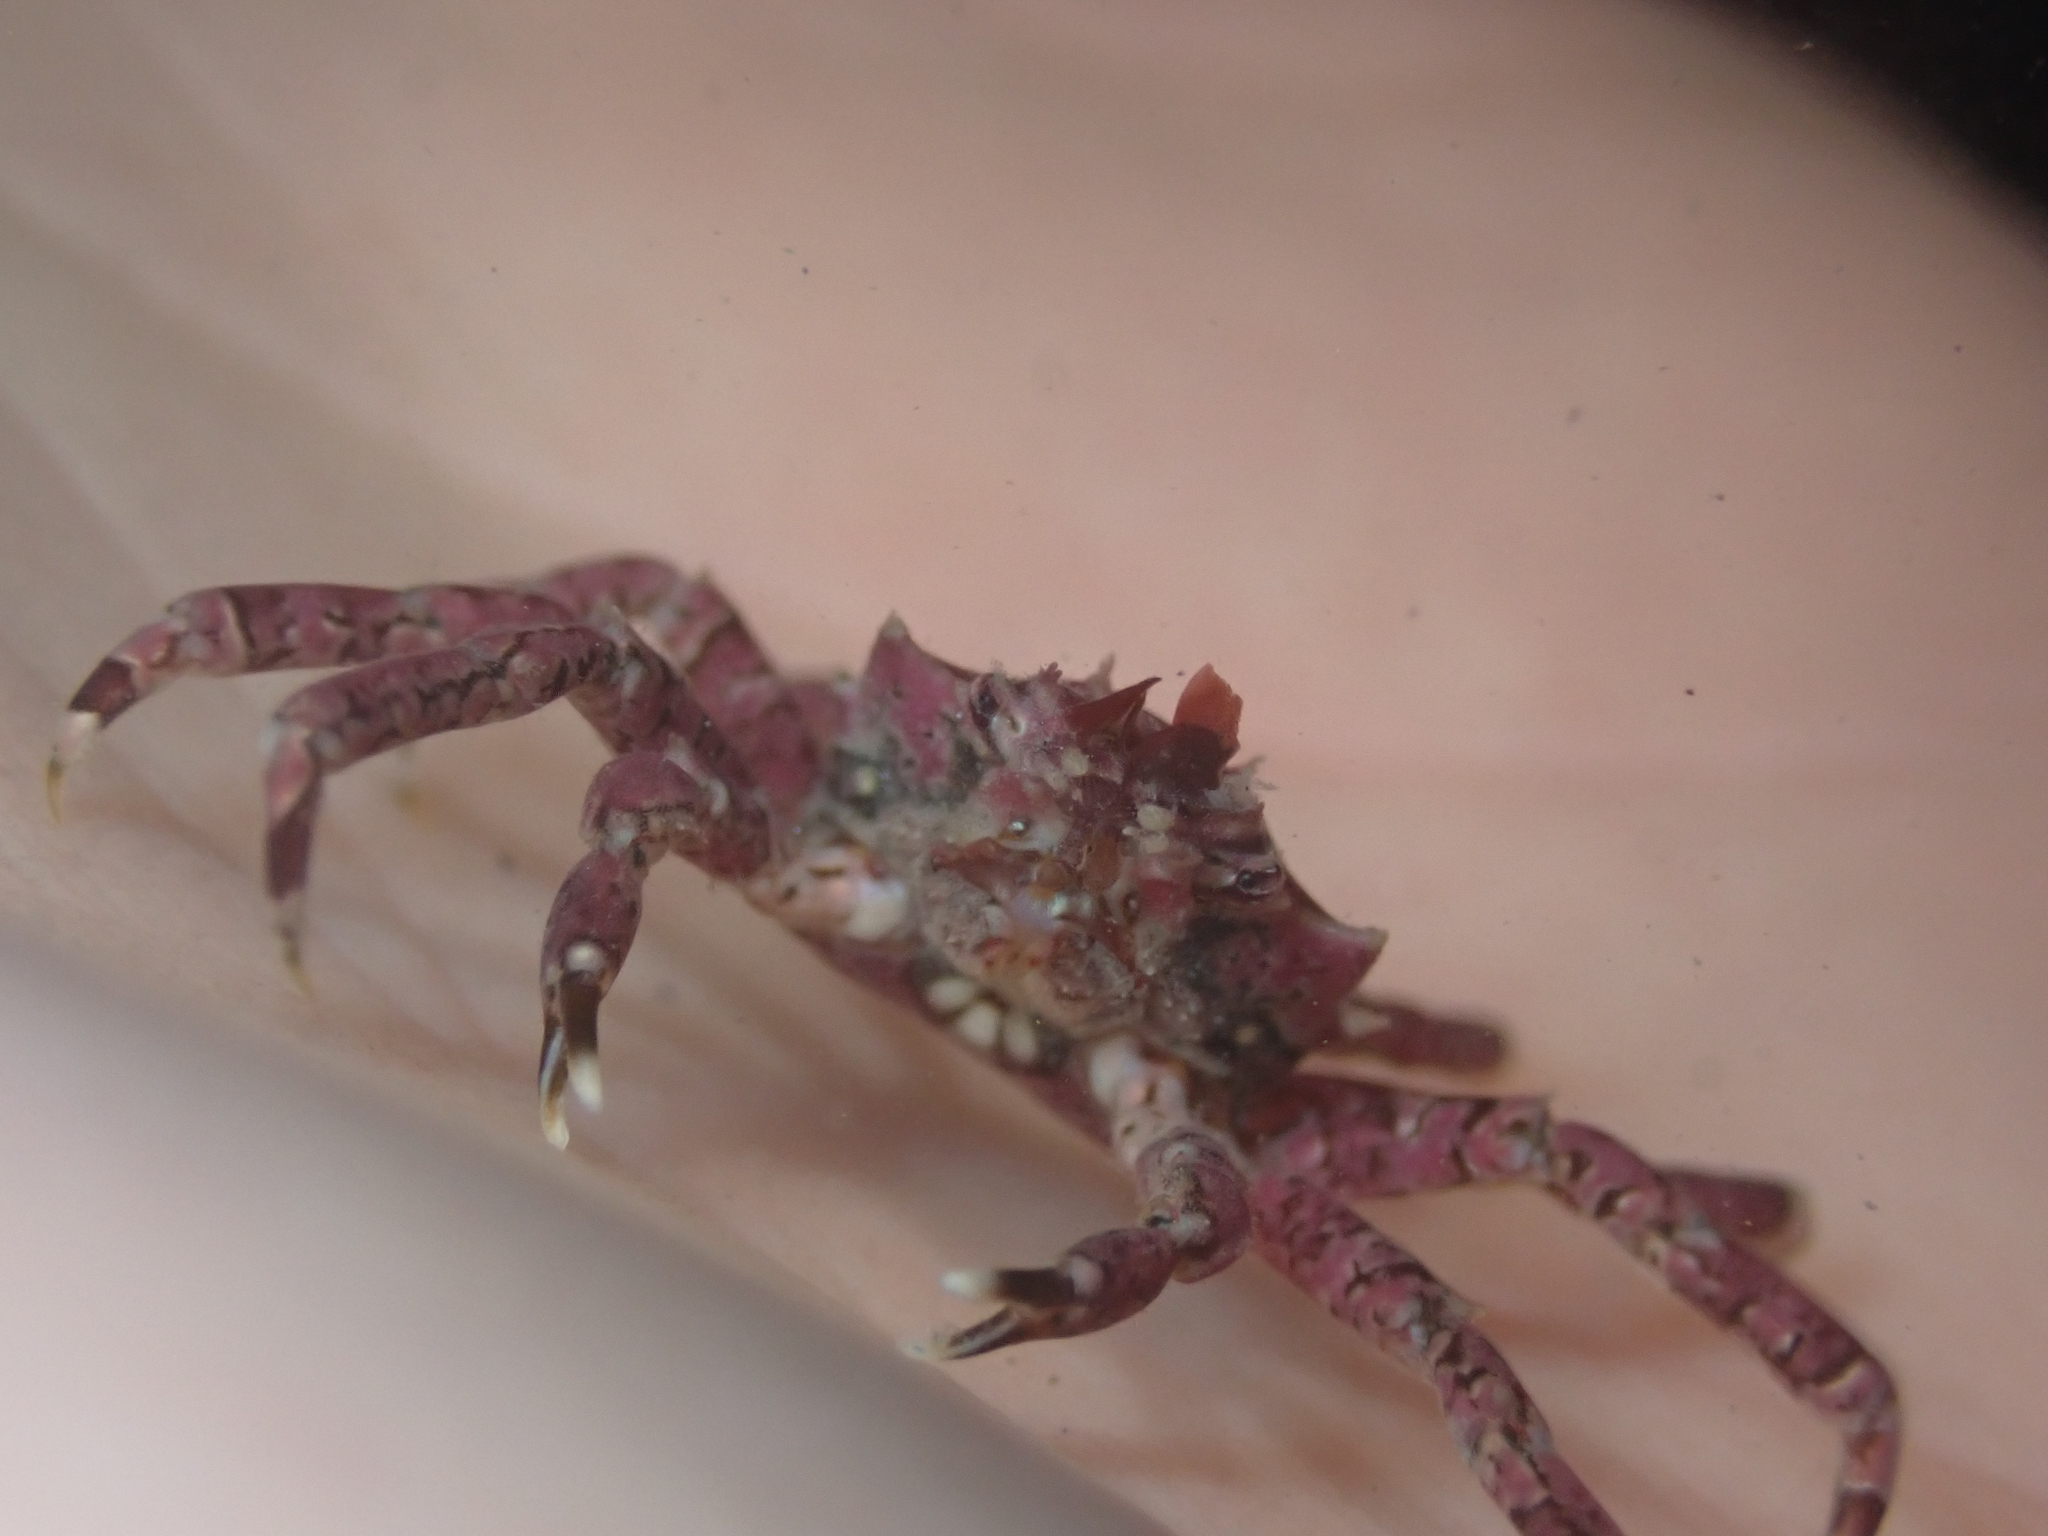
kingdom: Animalia
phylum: Arthropoda
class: Malacostraca
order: Decapoda
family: Epialtidae
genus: Pugettia
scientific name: Pugettia producta
